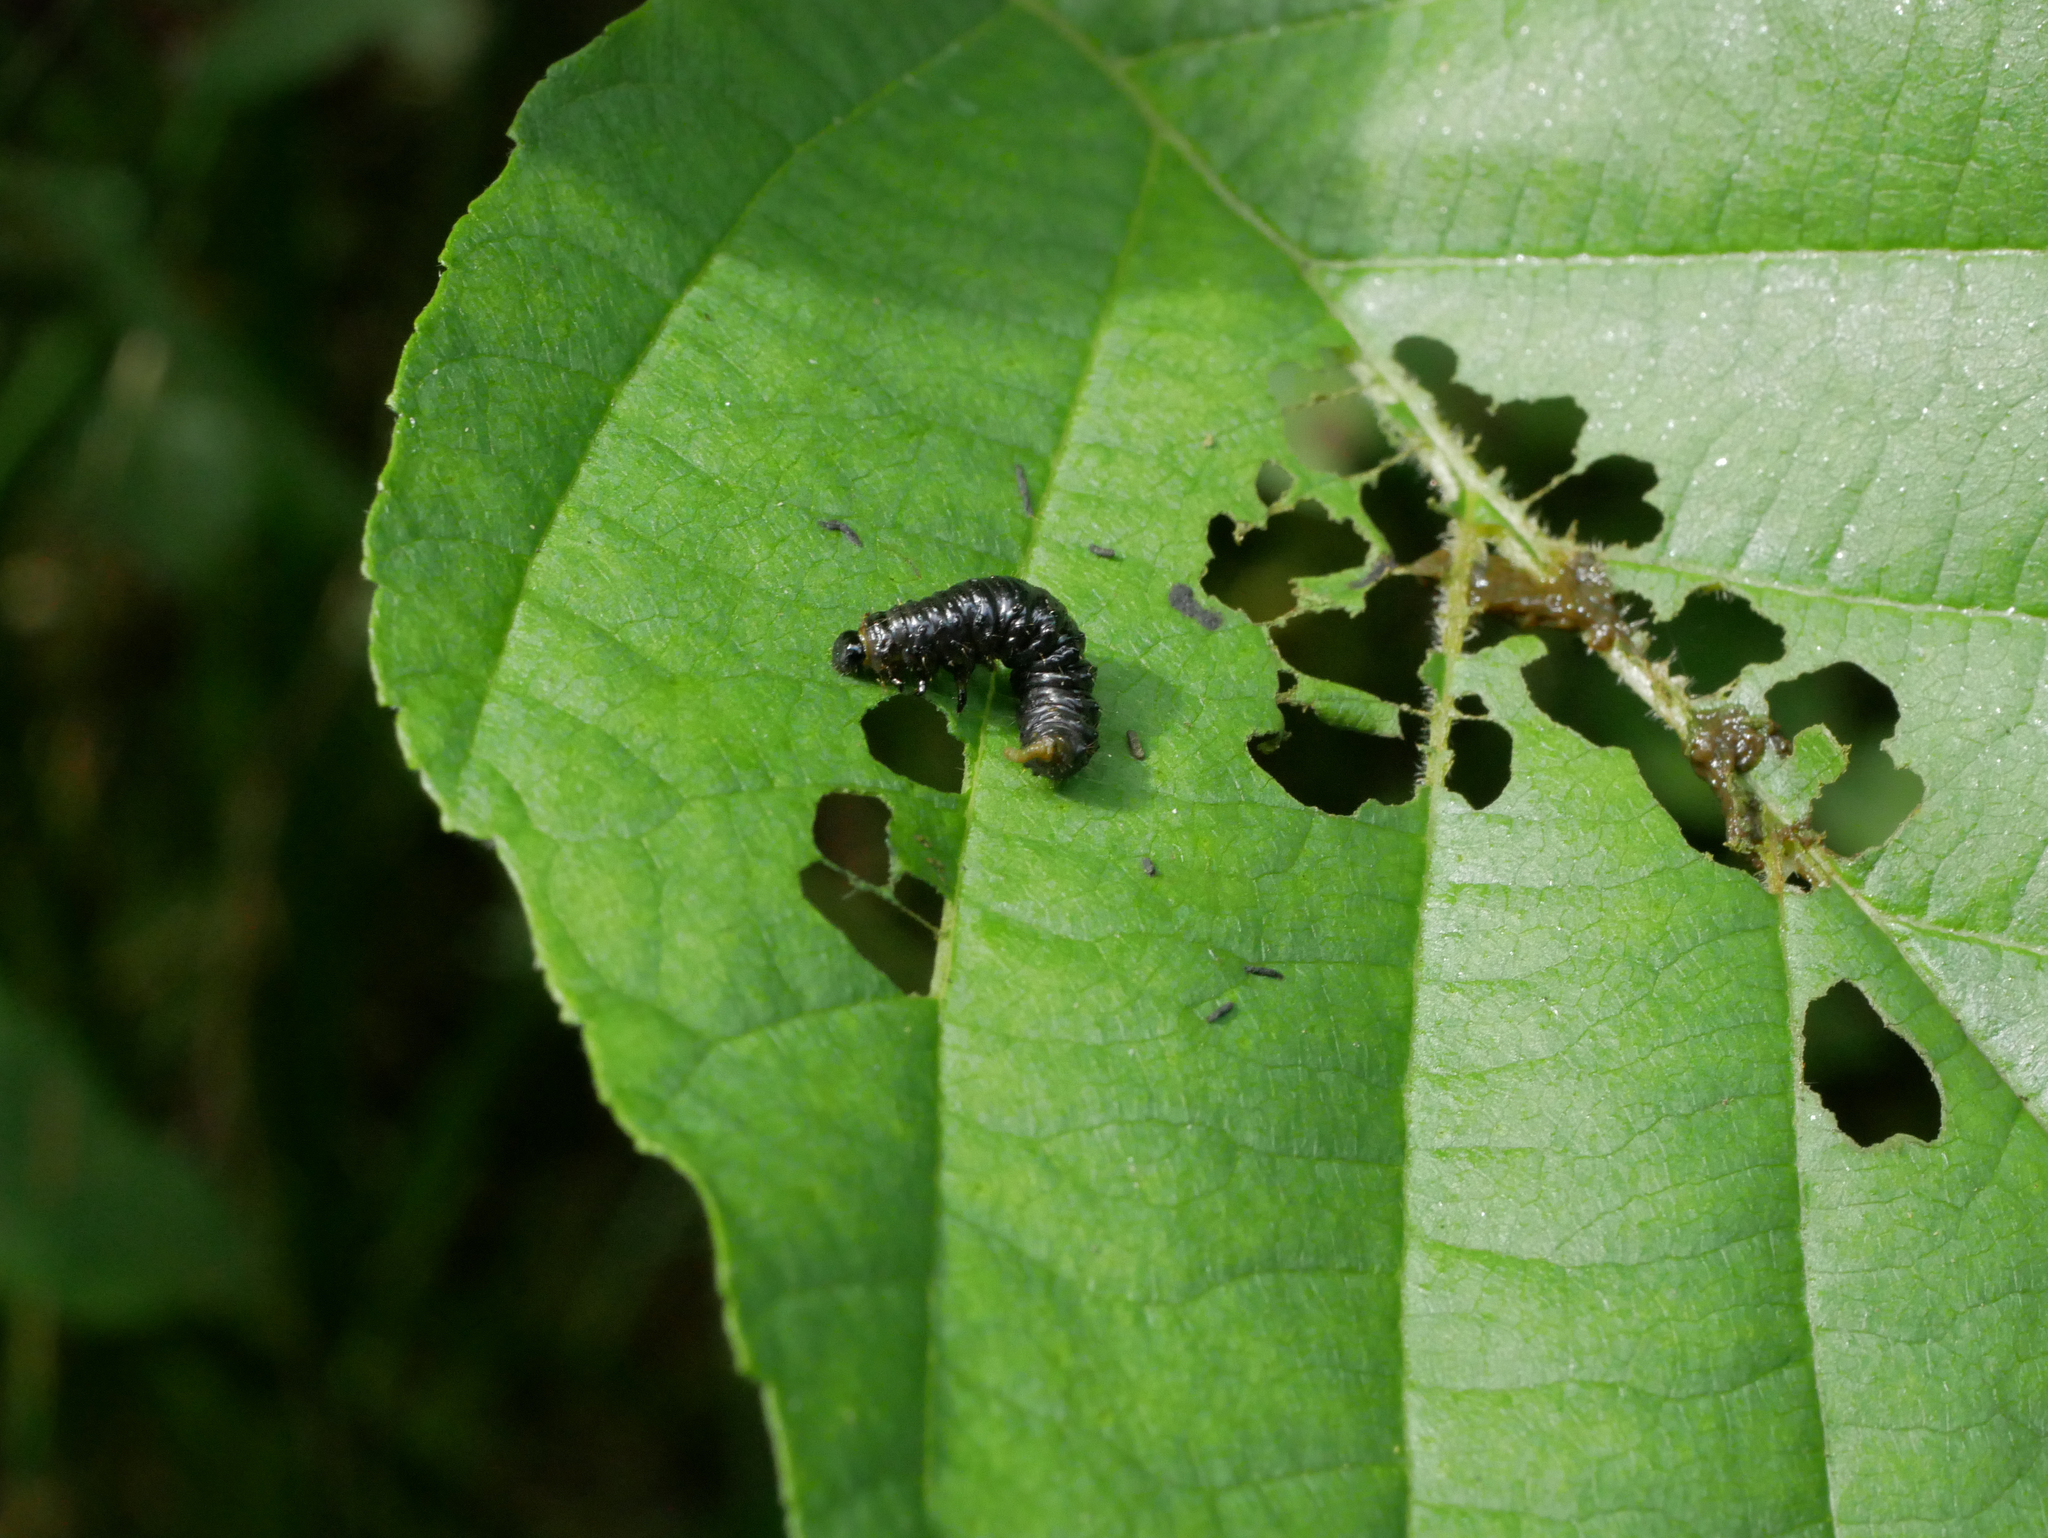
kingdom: Animalia
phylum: Arthropoda
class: Insecta
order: Coleoptera
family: Chrysomelidae
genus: Agelastica
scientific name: Agelastica alni
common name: Alder leaf beetle
